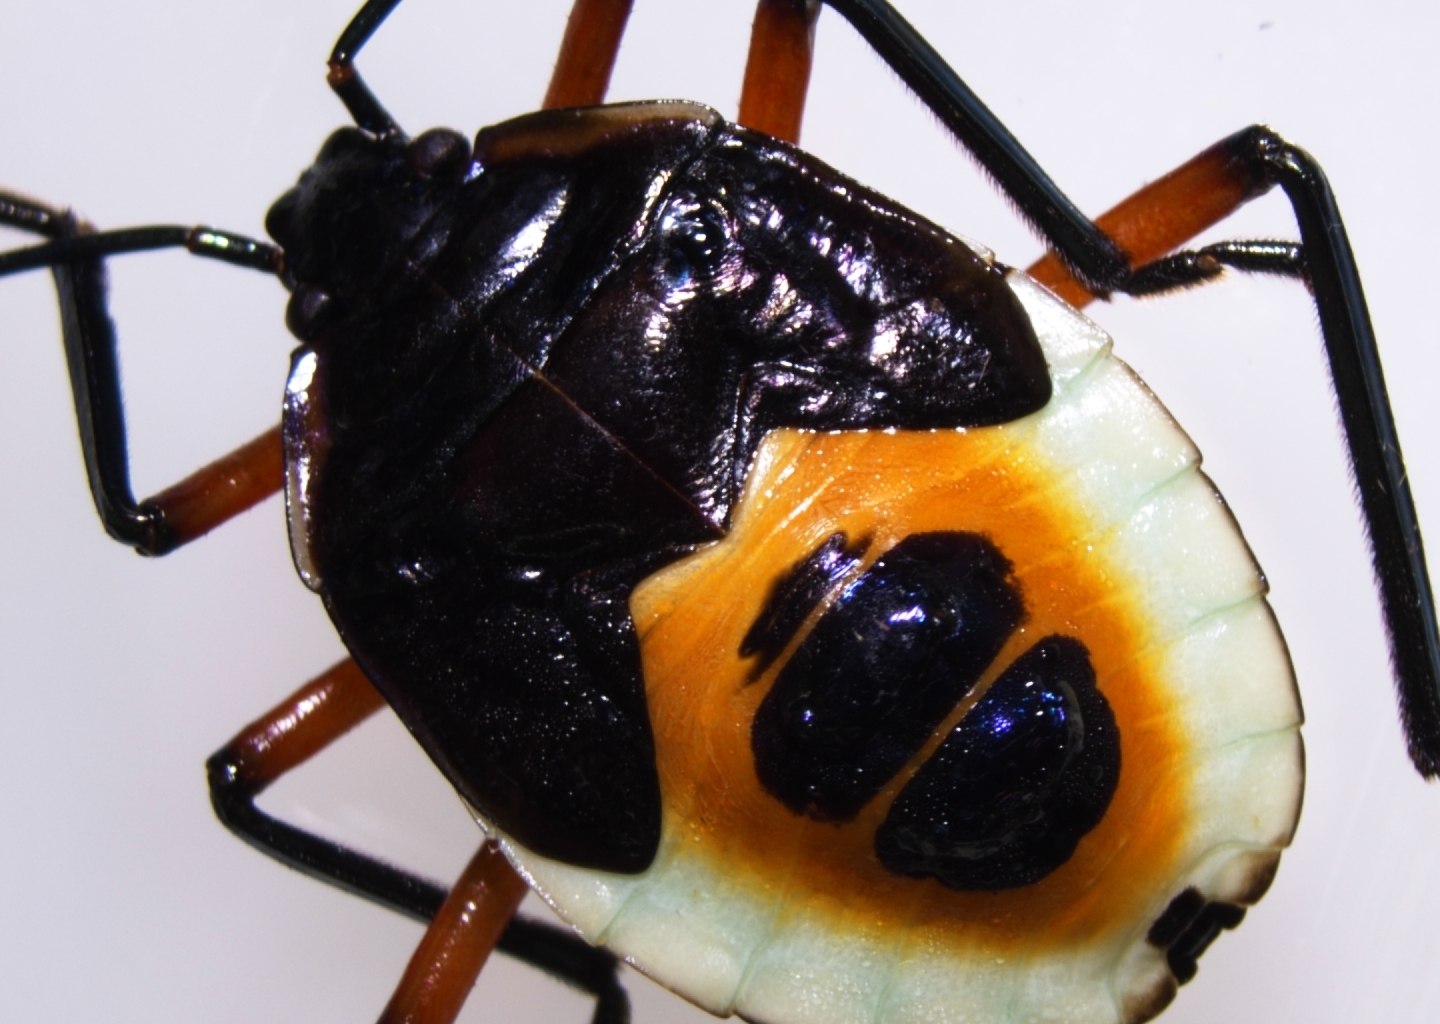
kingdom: Animalia
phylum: Arthropoda
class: Insecta
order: Hemiptera
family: Pentatomidae
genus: Catacanthus
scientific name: Catacanthus viridicatus
